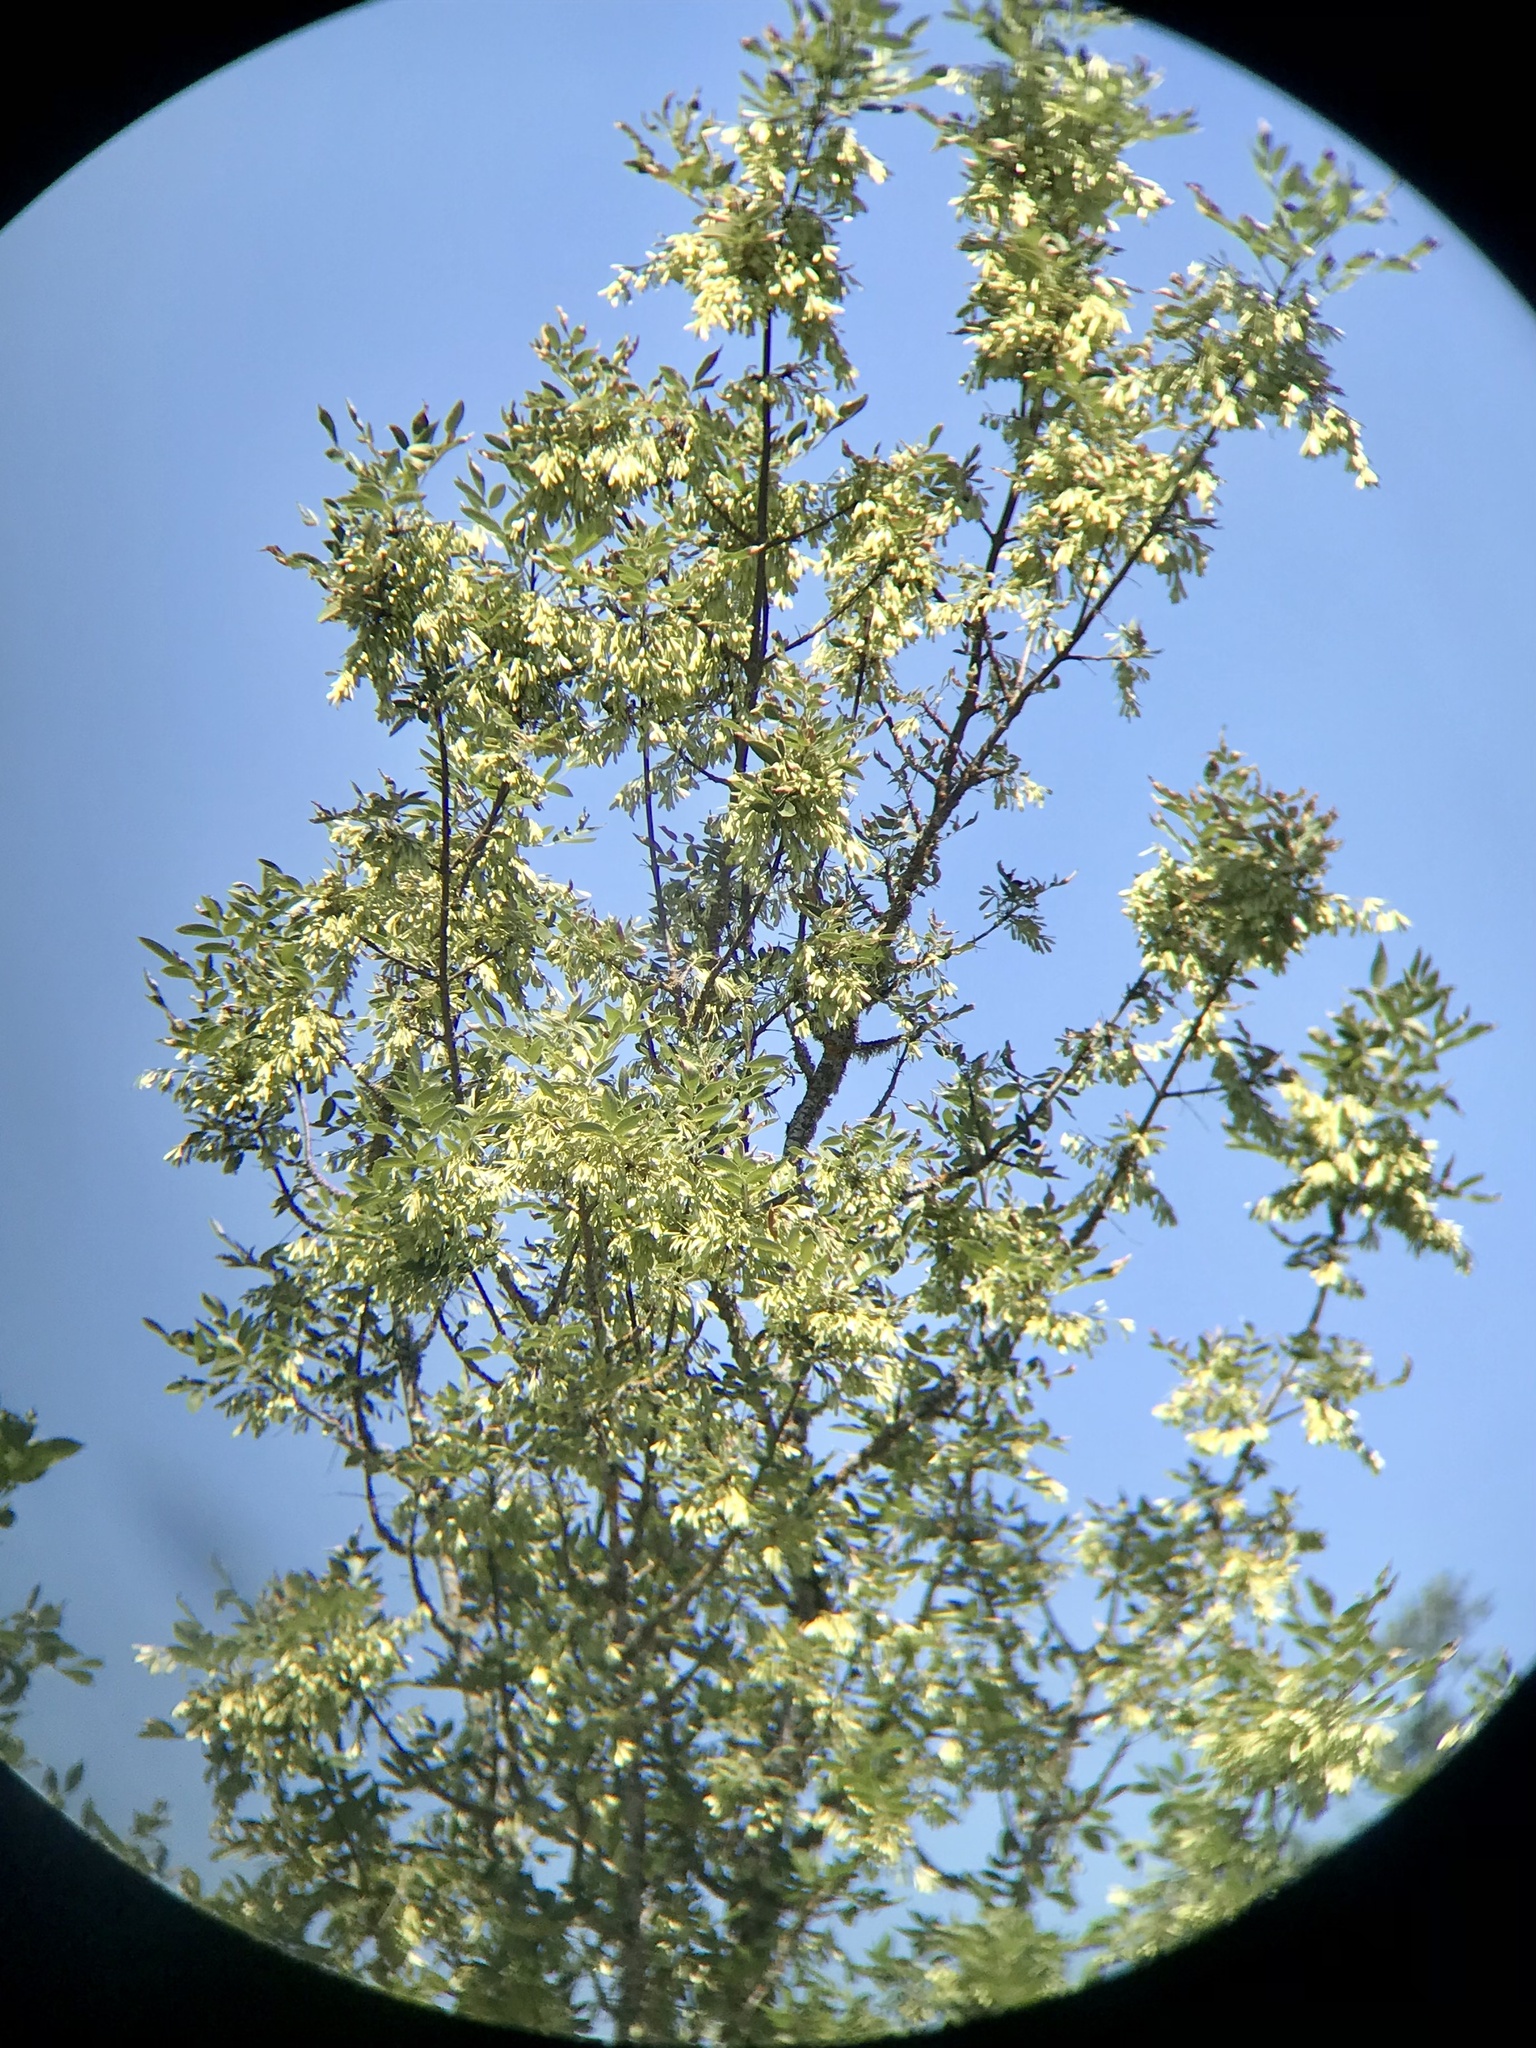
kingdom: Plantae
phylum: Tracheophyta
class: Magnoliopsida
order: Lamiales
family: Oleaceae
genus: Fraxinus
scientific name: Fraxinus latifolia
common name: Oregon ash
